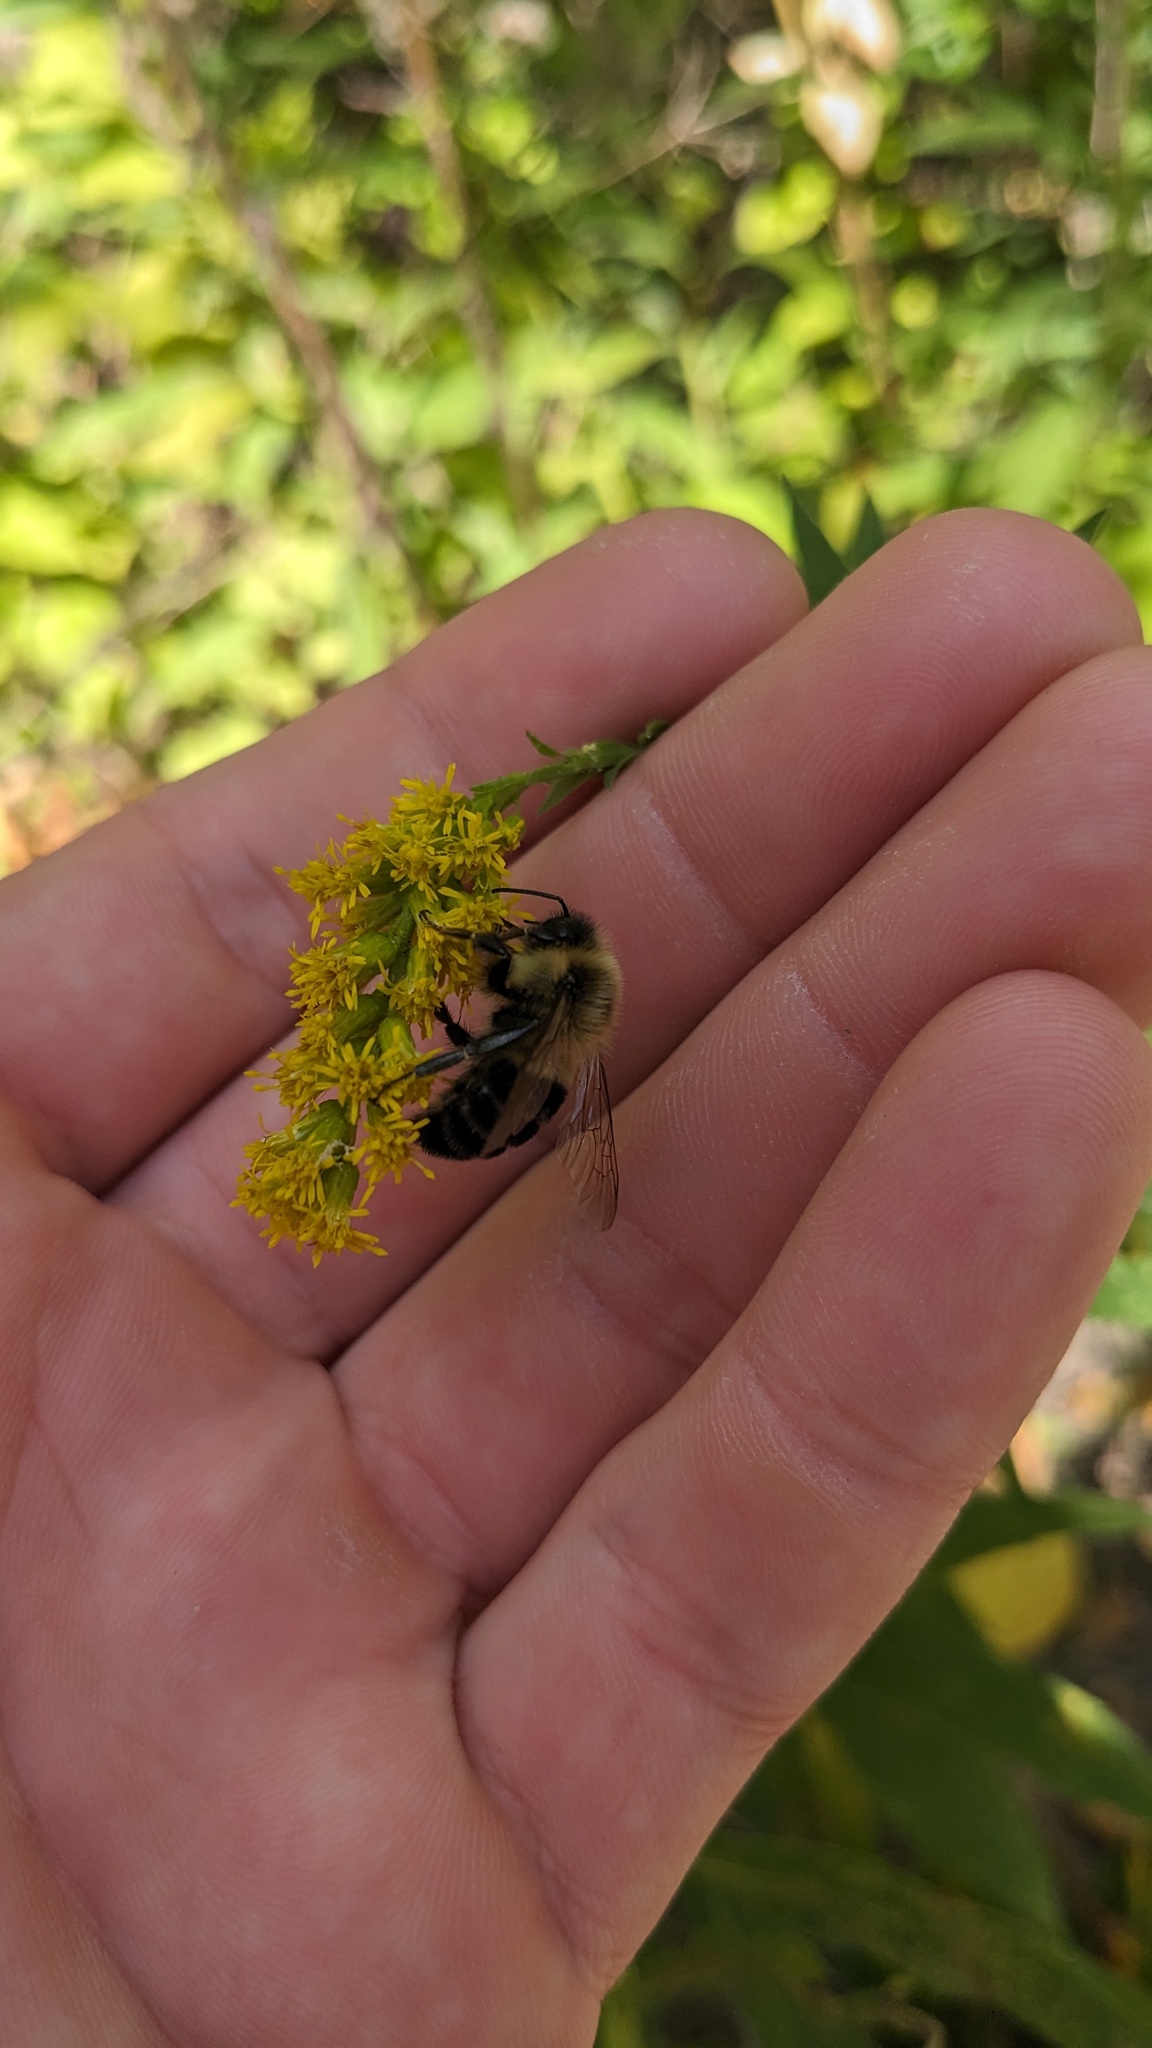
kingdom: Animalia
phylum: Arthropoda
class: Insecta
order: Hymenoptera
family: Apidae
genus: Bombus
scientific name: Bombus impatiens
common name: Common eastern bumble bee
